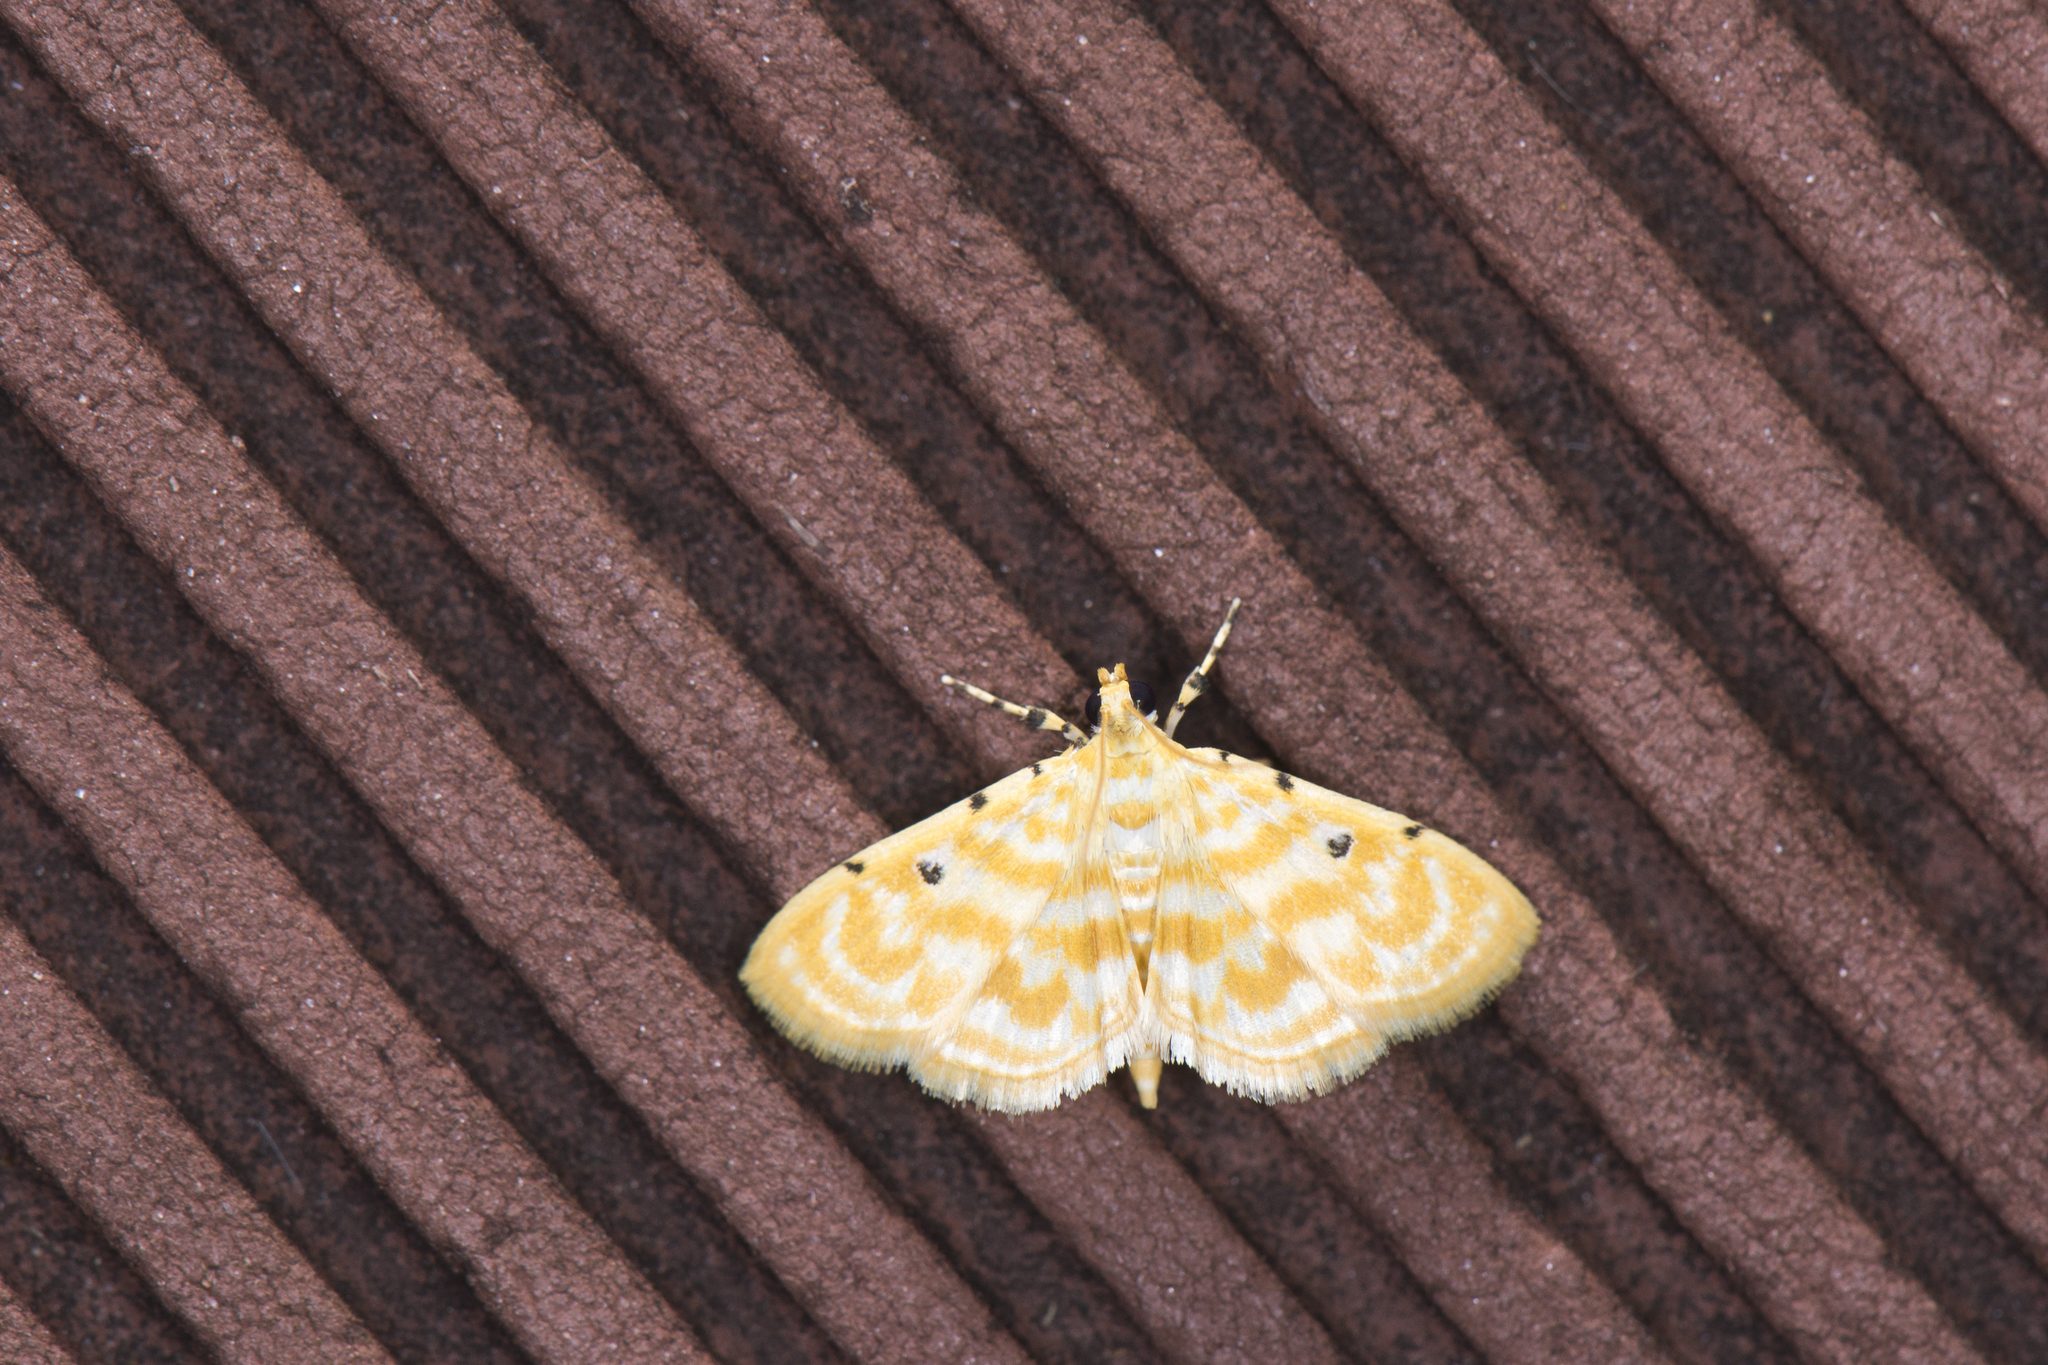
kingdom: Animalia
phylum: Arthropoda
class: Insecta
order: Lepidoptera
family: Crambidae
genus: Notarcha
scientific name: Notarcha quaternalis
